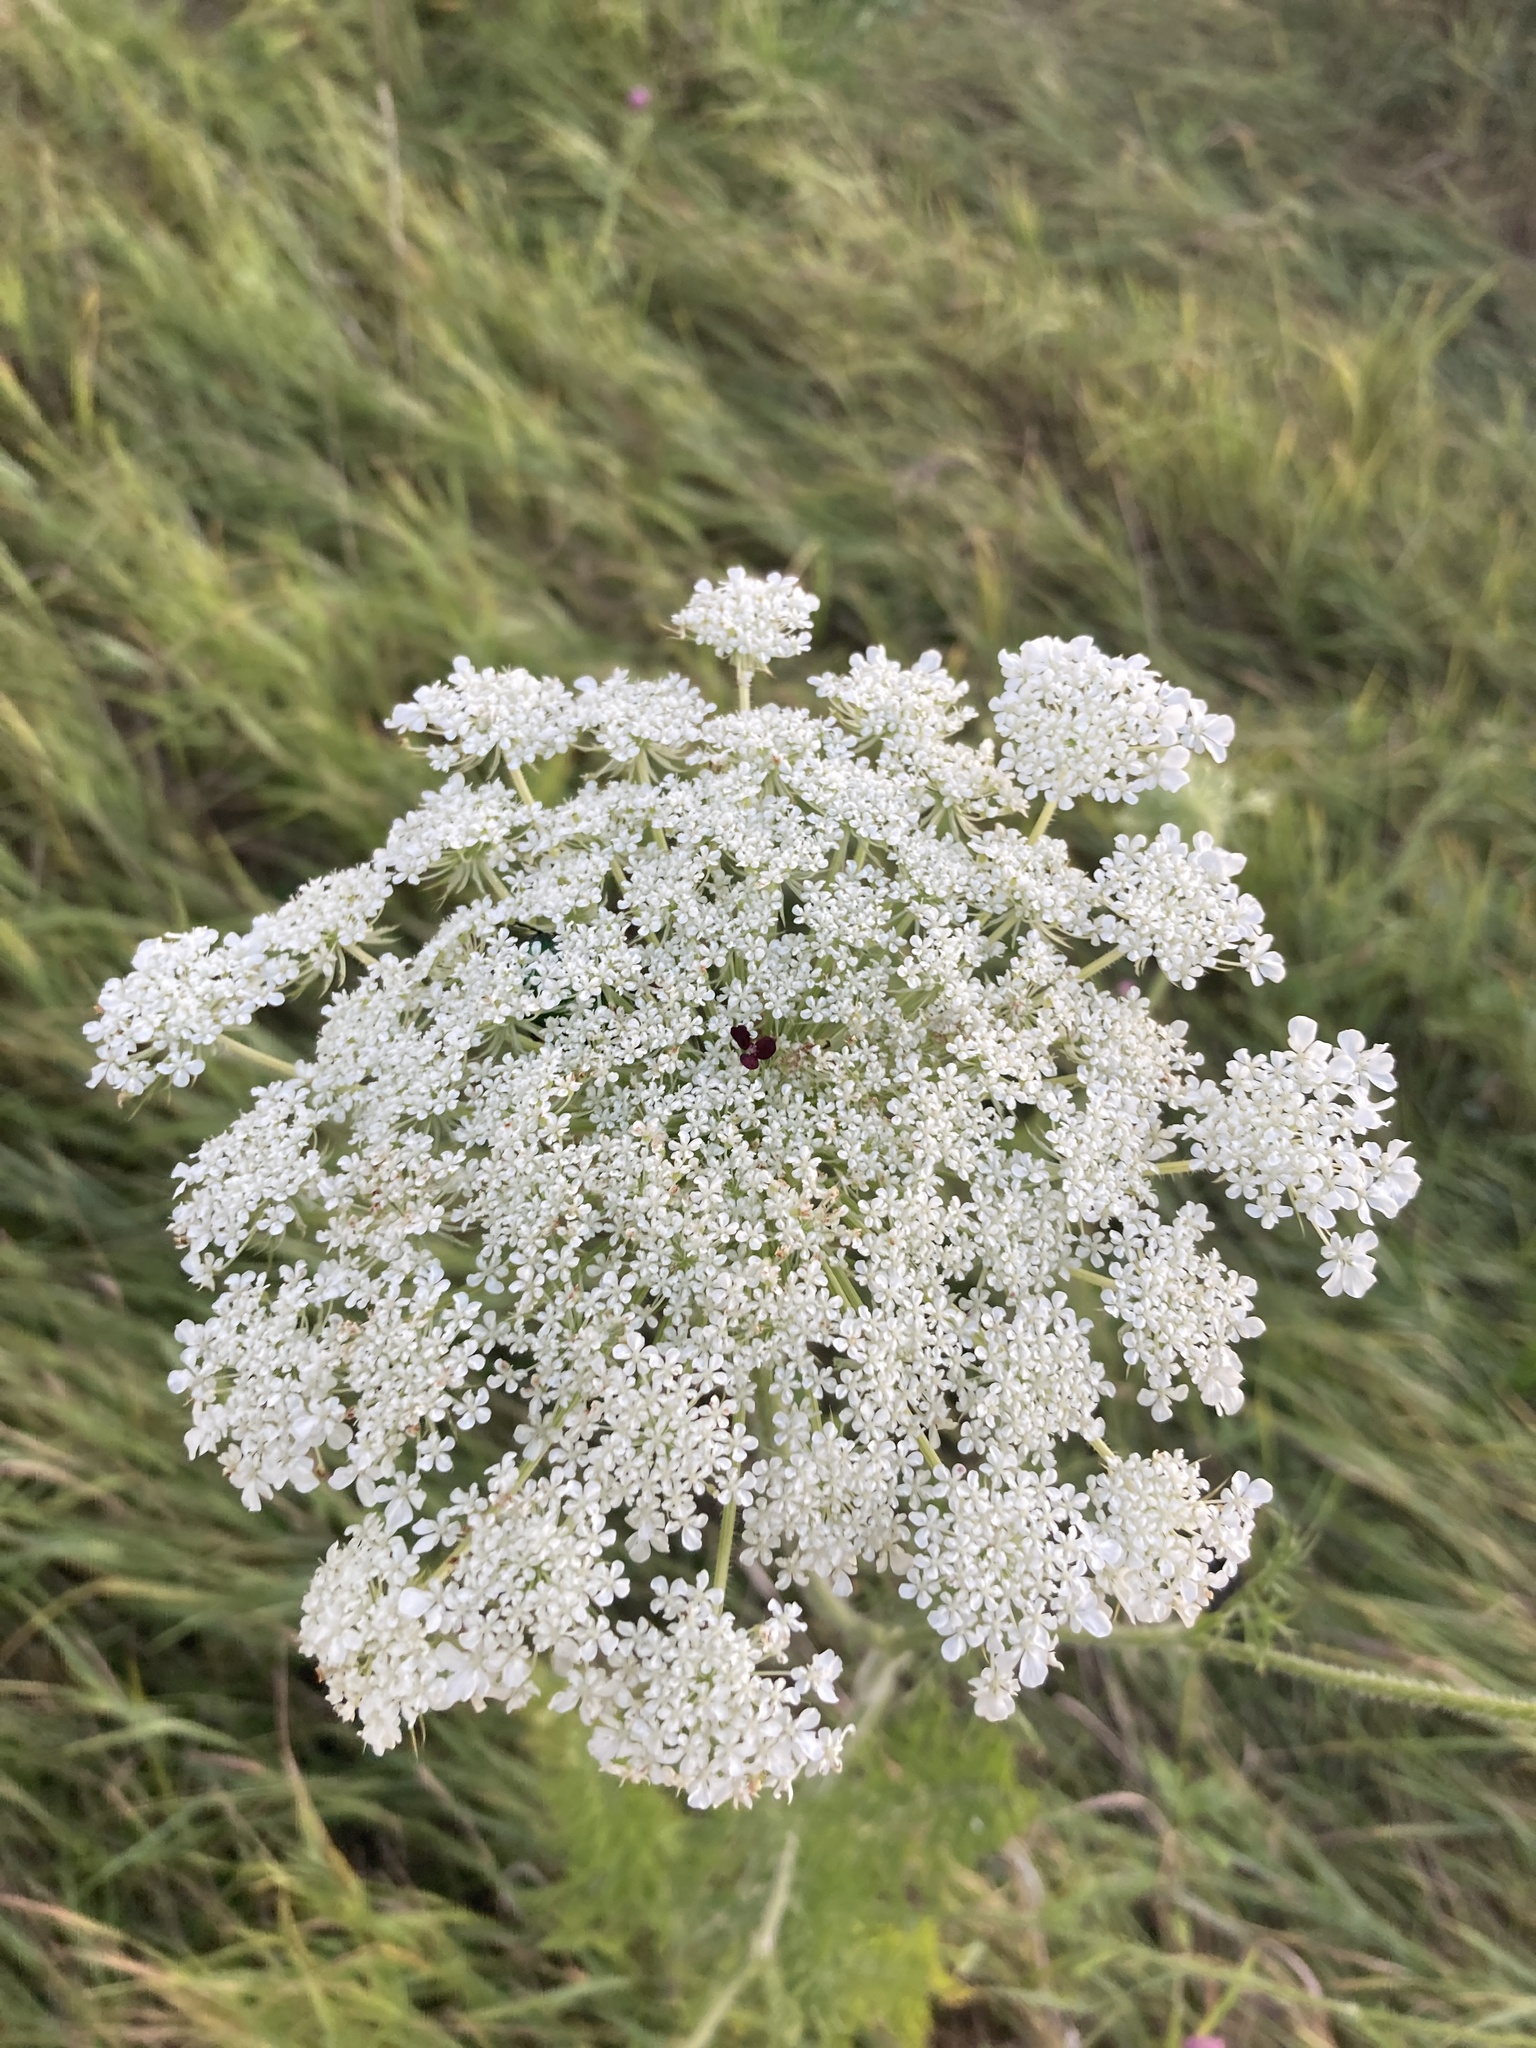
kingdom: Plantae
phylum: Tracheophyta
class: Magnoliopsida
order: Apiales
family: Apiaceae
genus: Daucus
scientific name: Daucus carota
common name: Wild carrot
